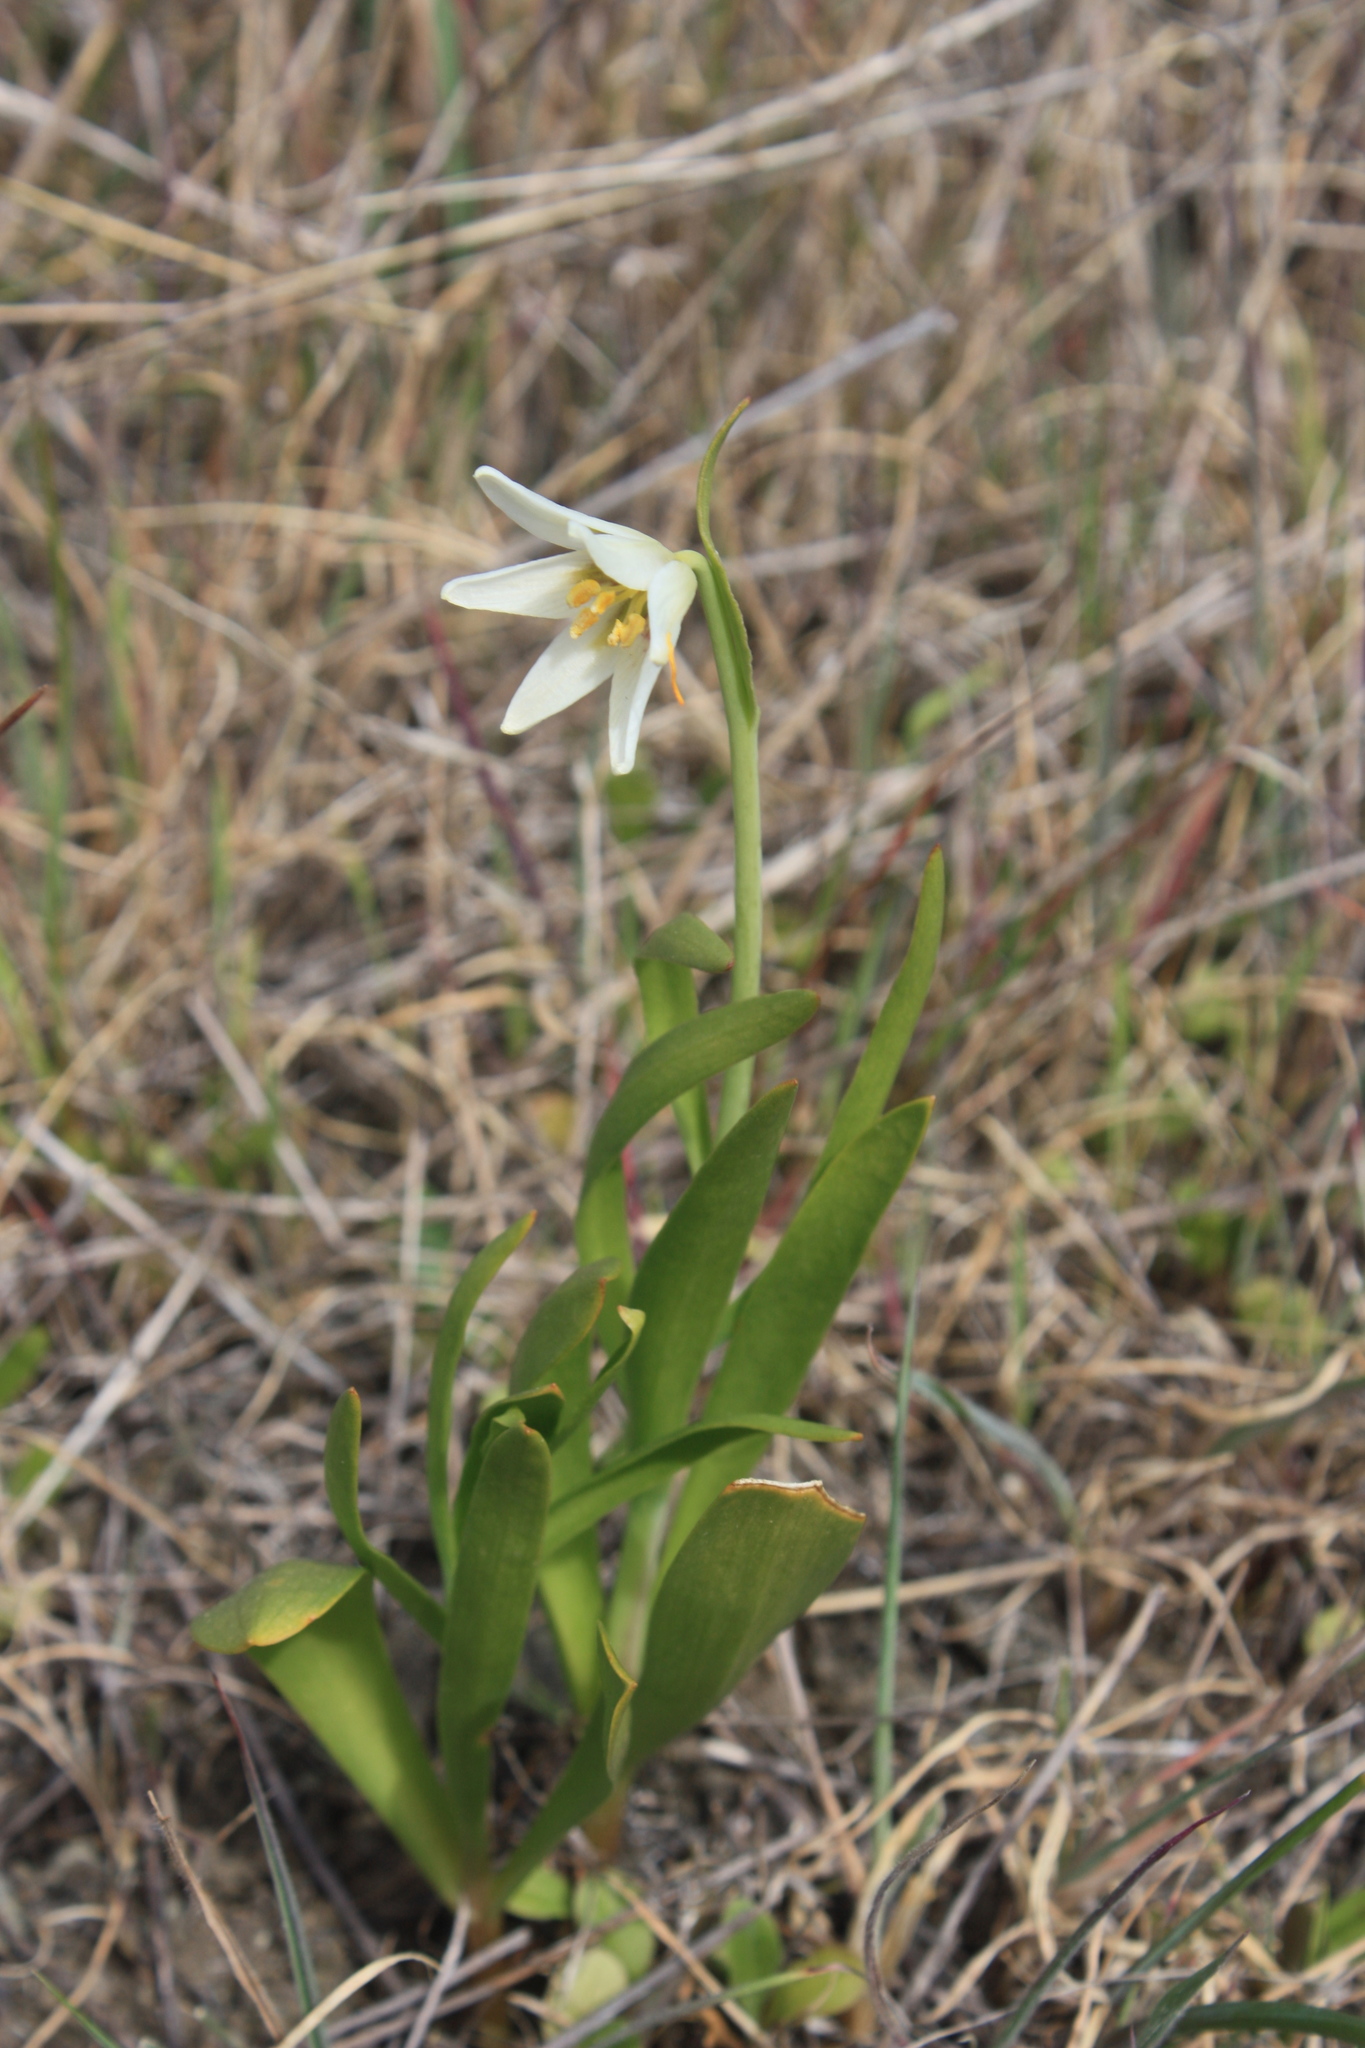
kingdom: Plantae
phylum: Tracheophyta
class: Liliopsida
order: Liliales
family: Liliaceae
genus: Fritillaria
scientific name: Fritillaria liliacea
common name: Fragrant fritillary
